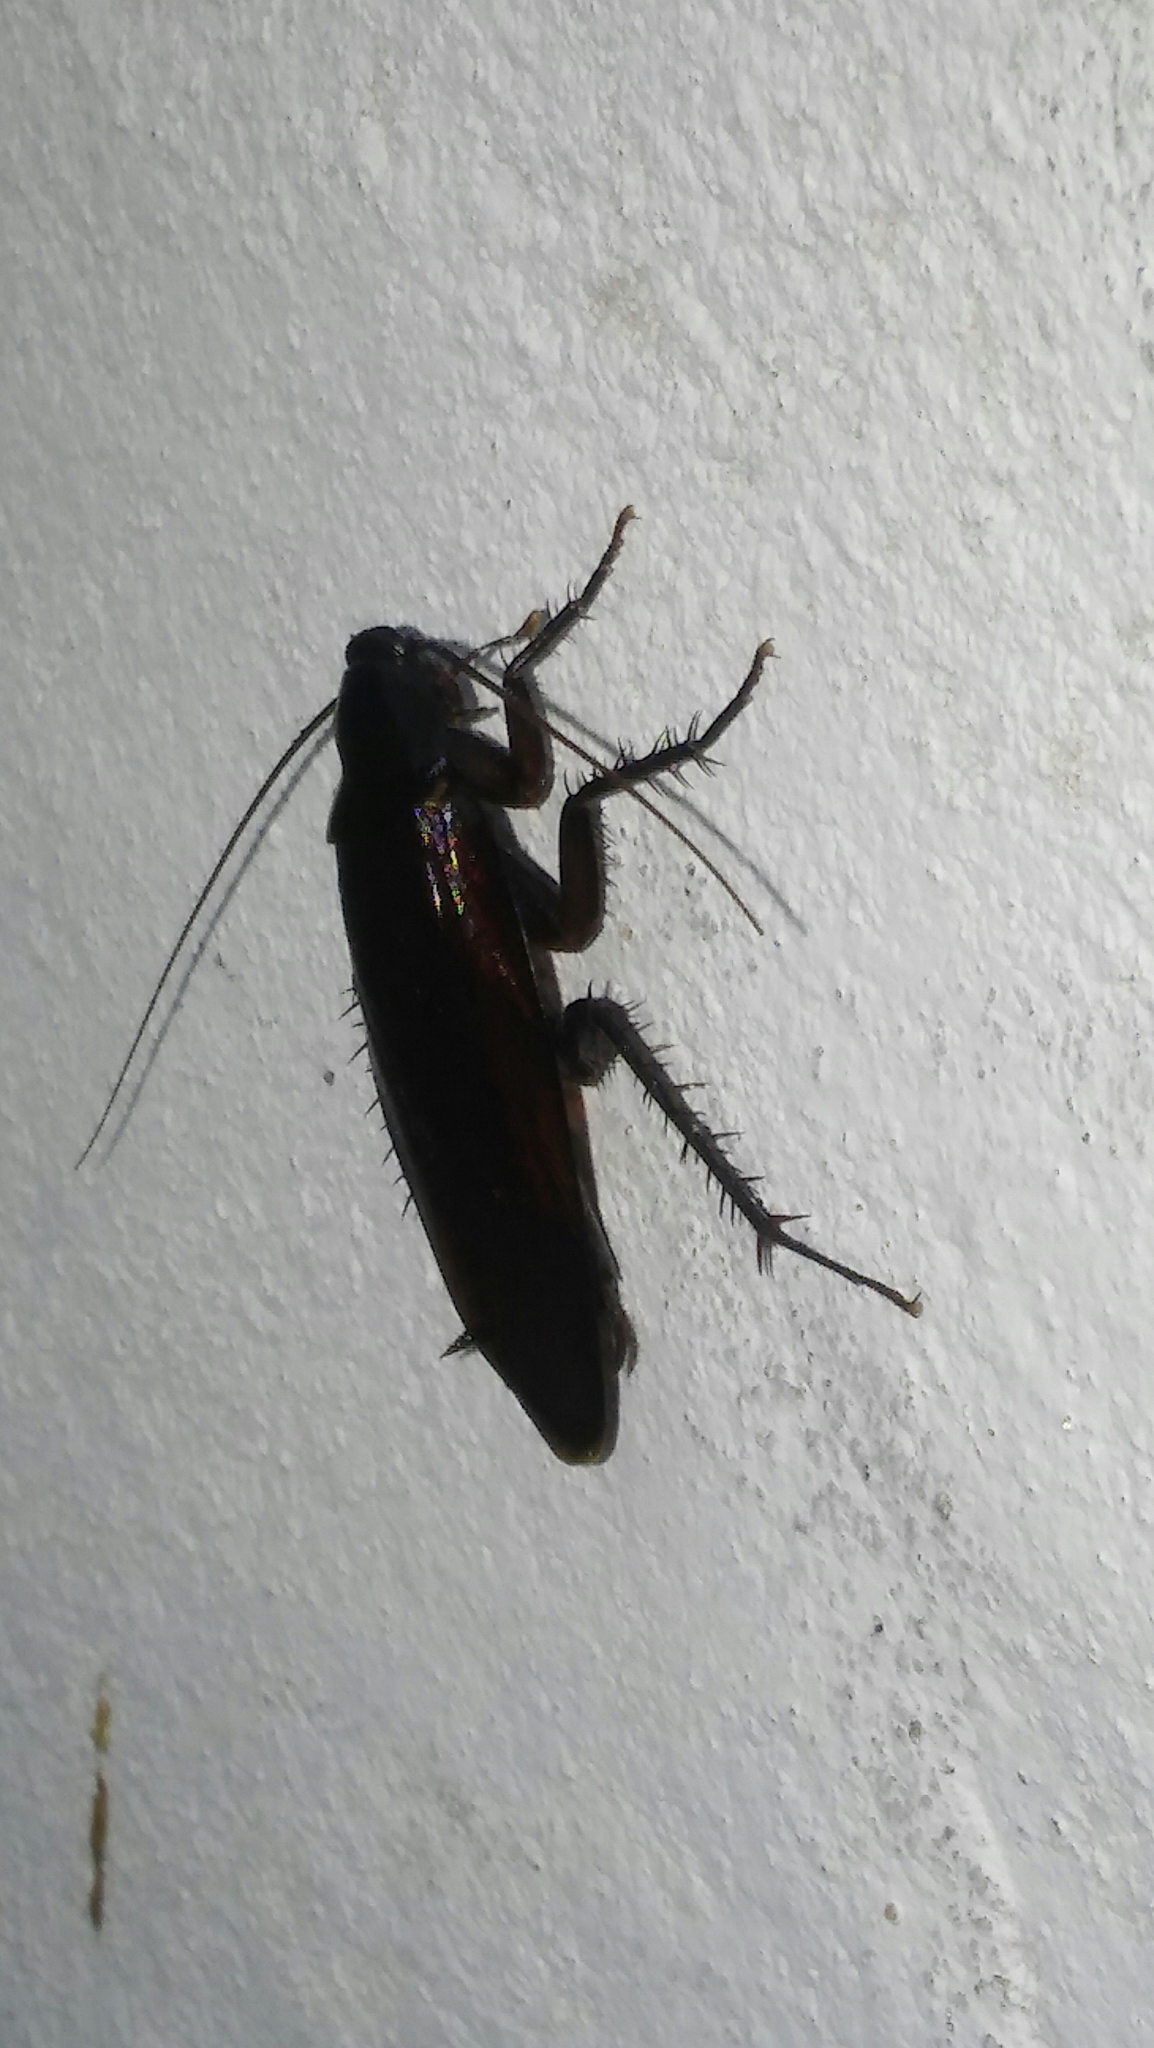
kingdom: Animalia
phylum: Arthropoda
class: Insecta
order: Blattodea
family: Blattidae
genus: Periplaneta
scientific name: Periplaneta fuliginosa
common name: Smokeybrown cockroad
